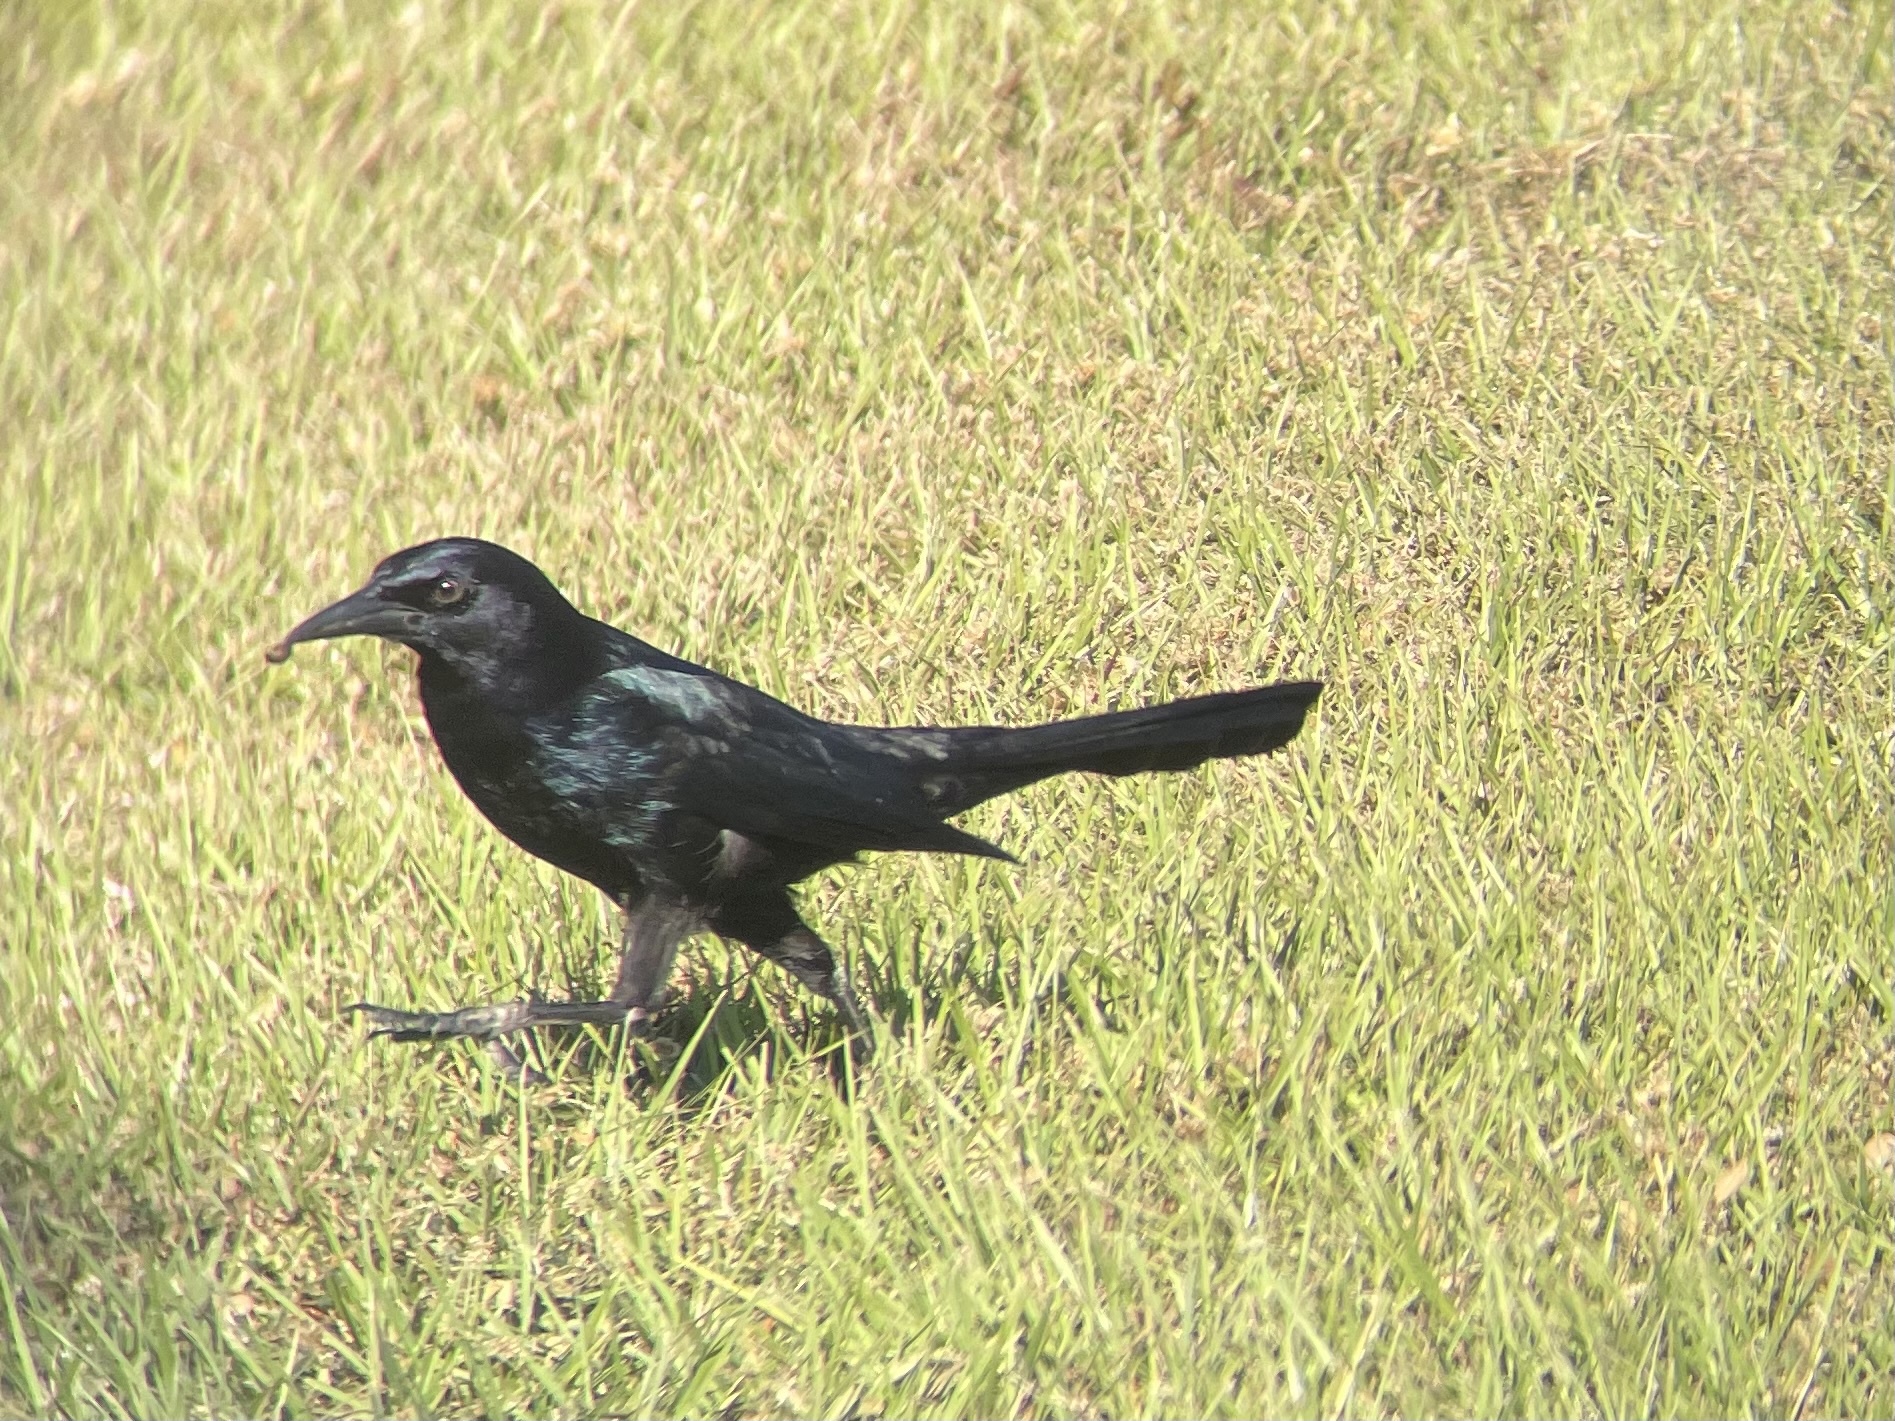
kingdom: Animalia
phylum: Chordata
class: Aves
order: Passeriformes
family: Icteridae
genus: Quiscalus
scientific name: Quiscalus major
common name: Boat-tailed grackle
